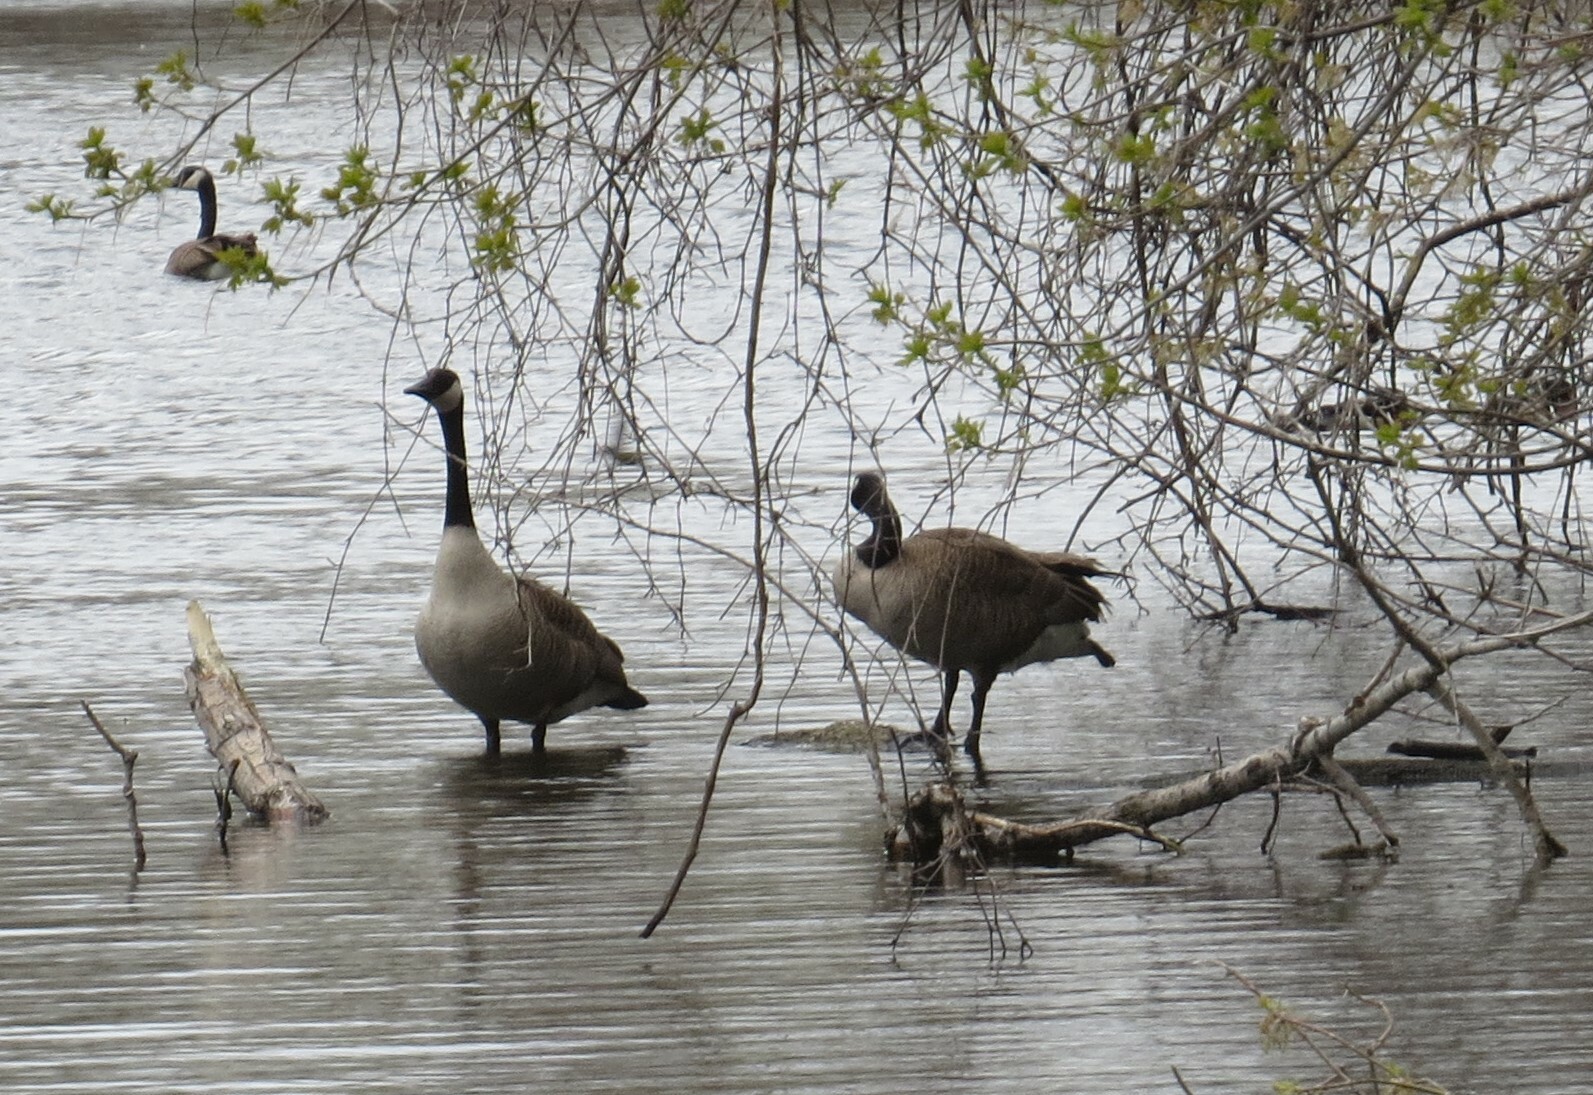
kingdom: Animalia
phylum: Chordata
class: Aves
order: Anseriformes
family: Anatidae
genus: Branta
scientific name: Branta canadensis
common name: Canada goose
